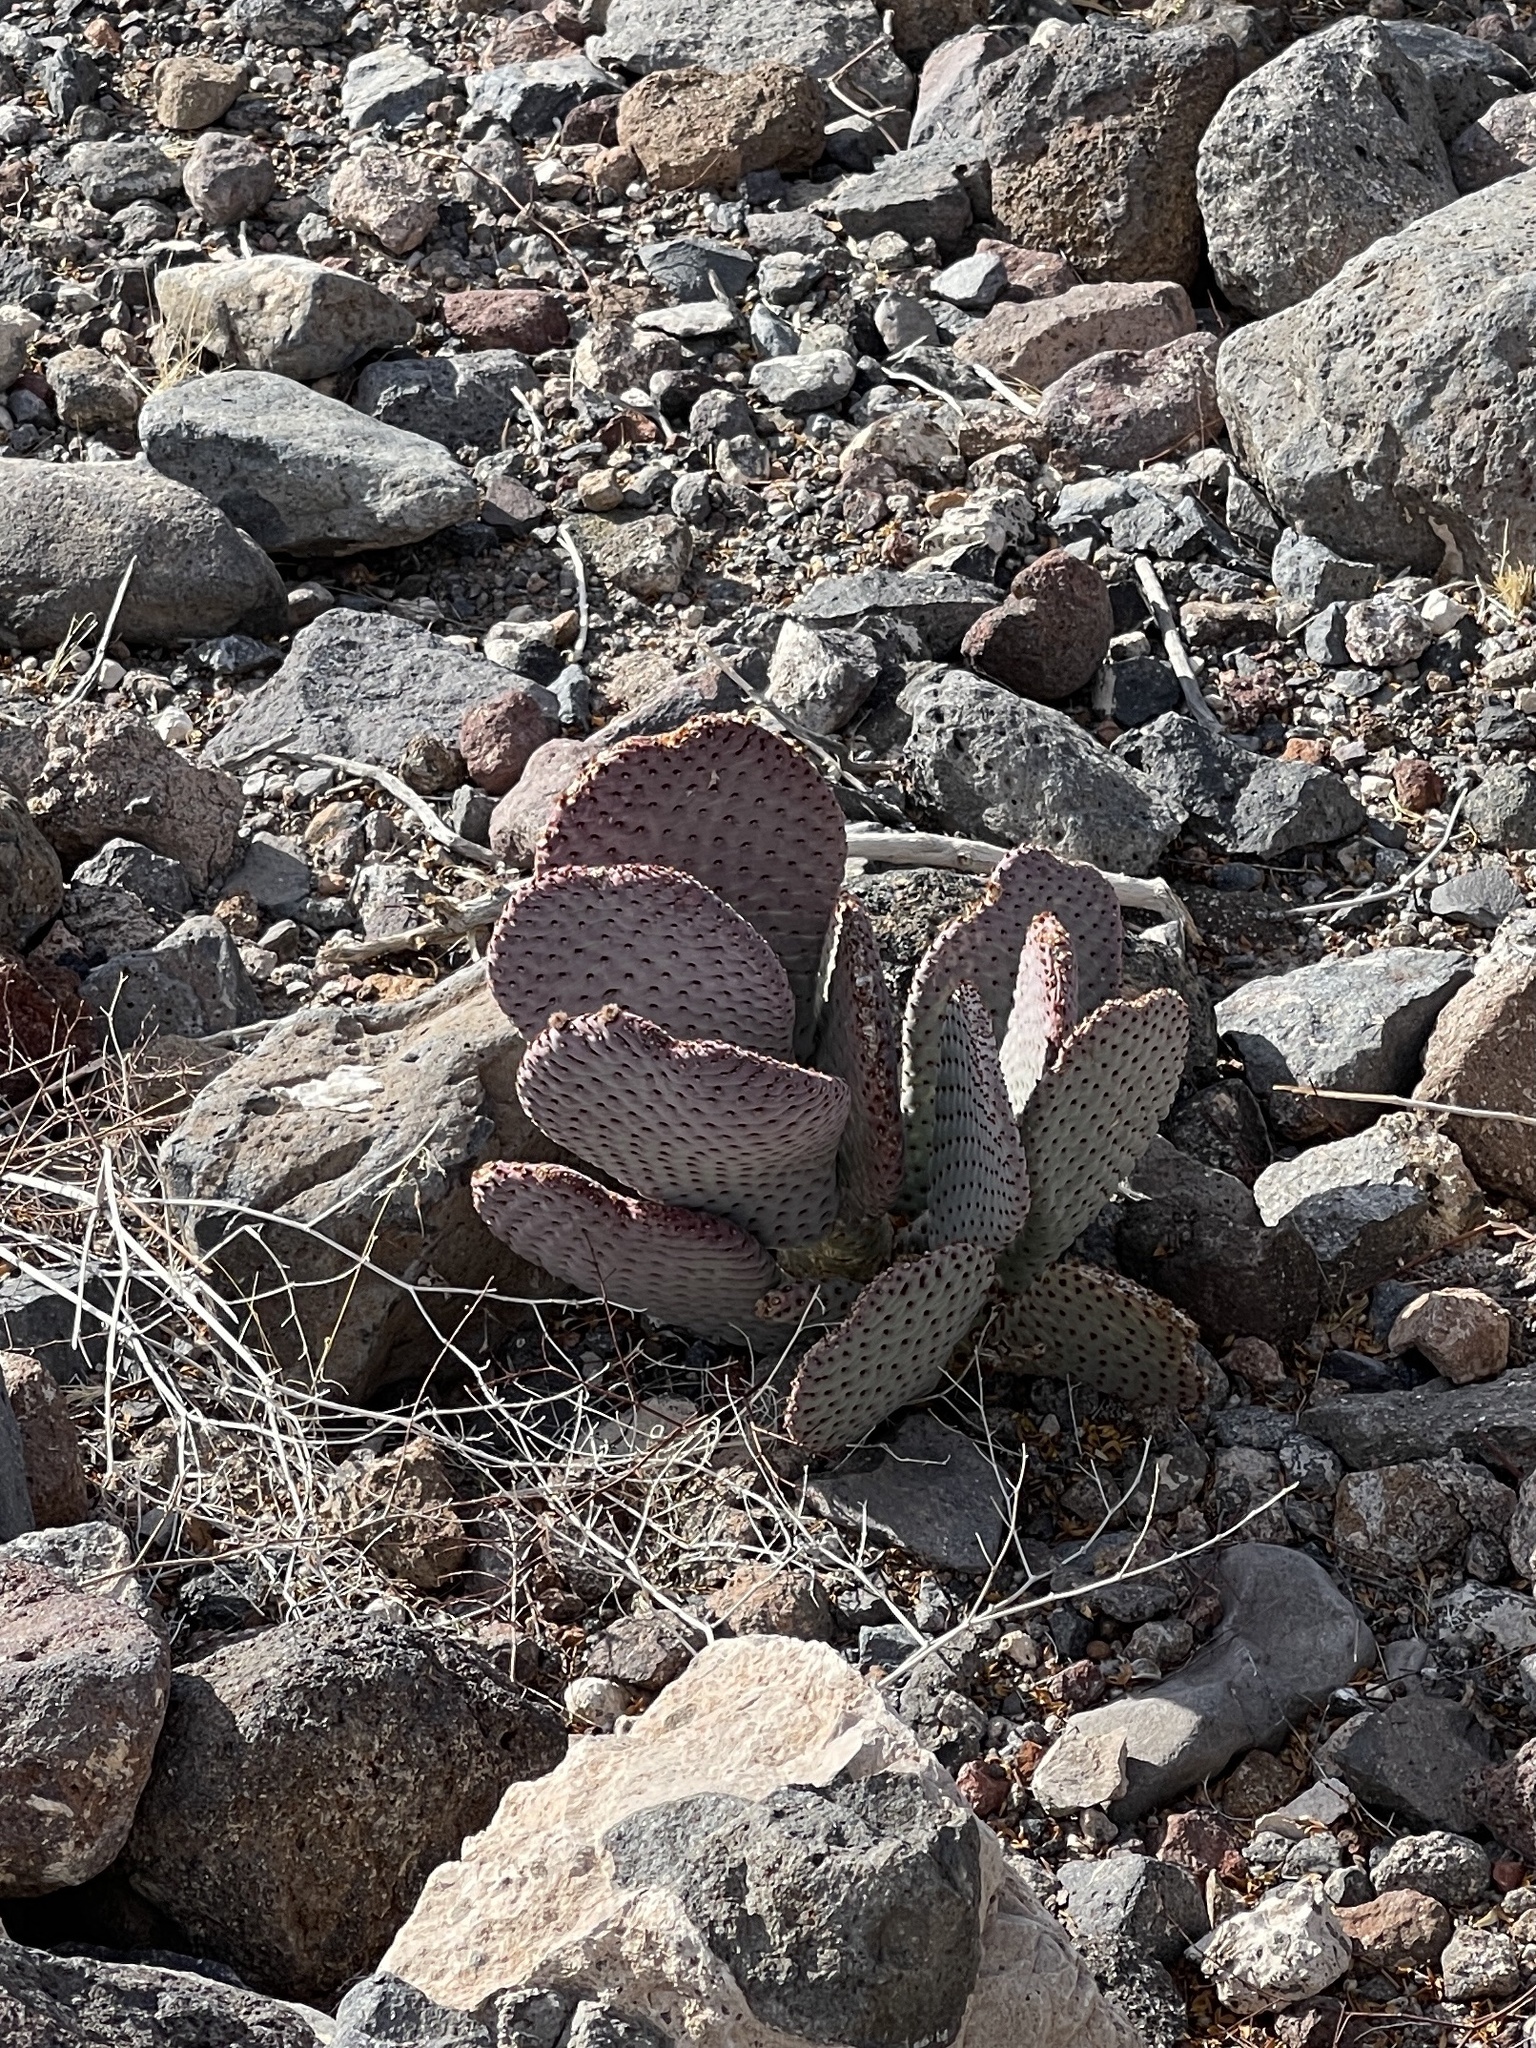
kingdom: Plantae
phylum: Tracheophyta
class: Magnoliopsida
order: Caryophyllales
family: Cactaceae
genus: Opuntia
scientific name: Opuntia basilaris
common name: Beavertail prickly-pear
